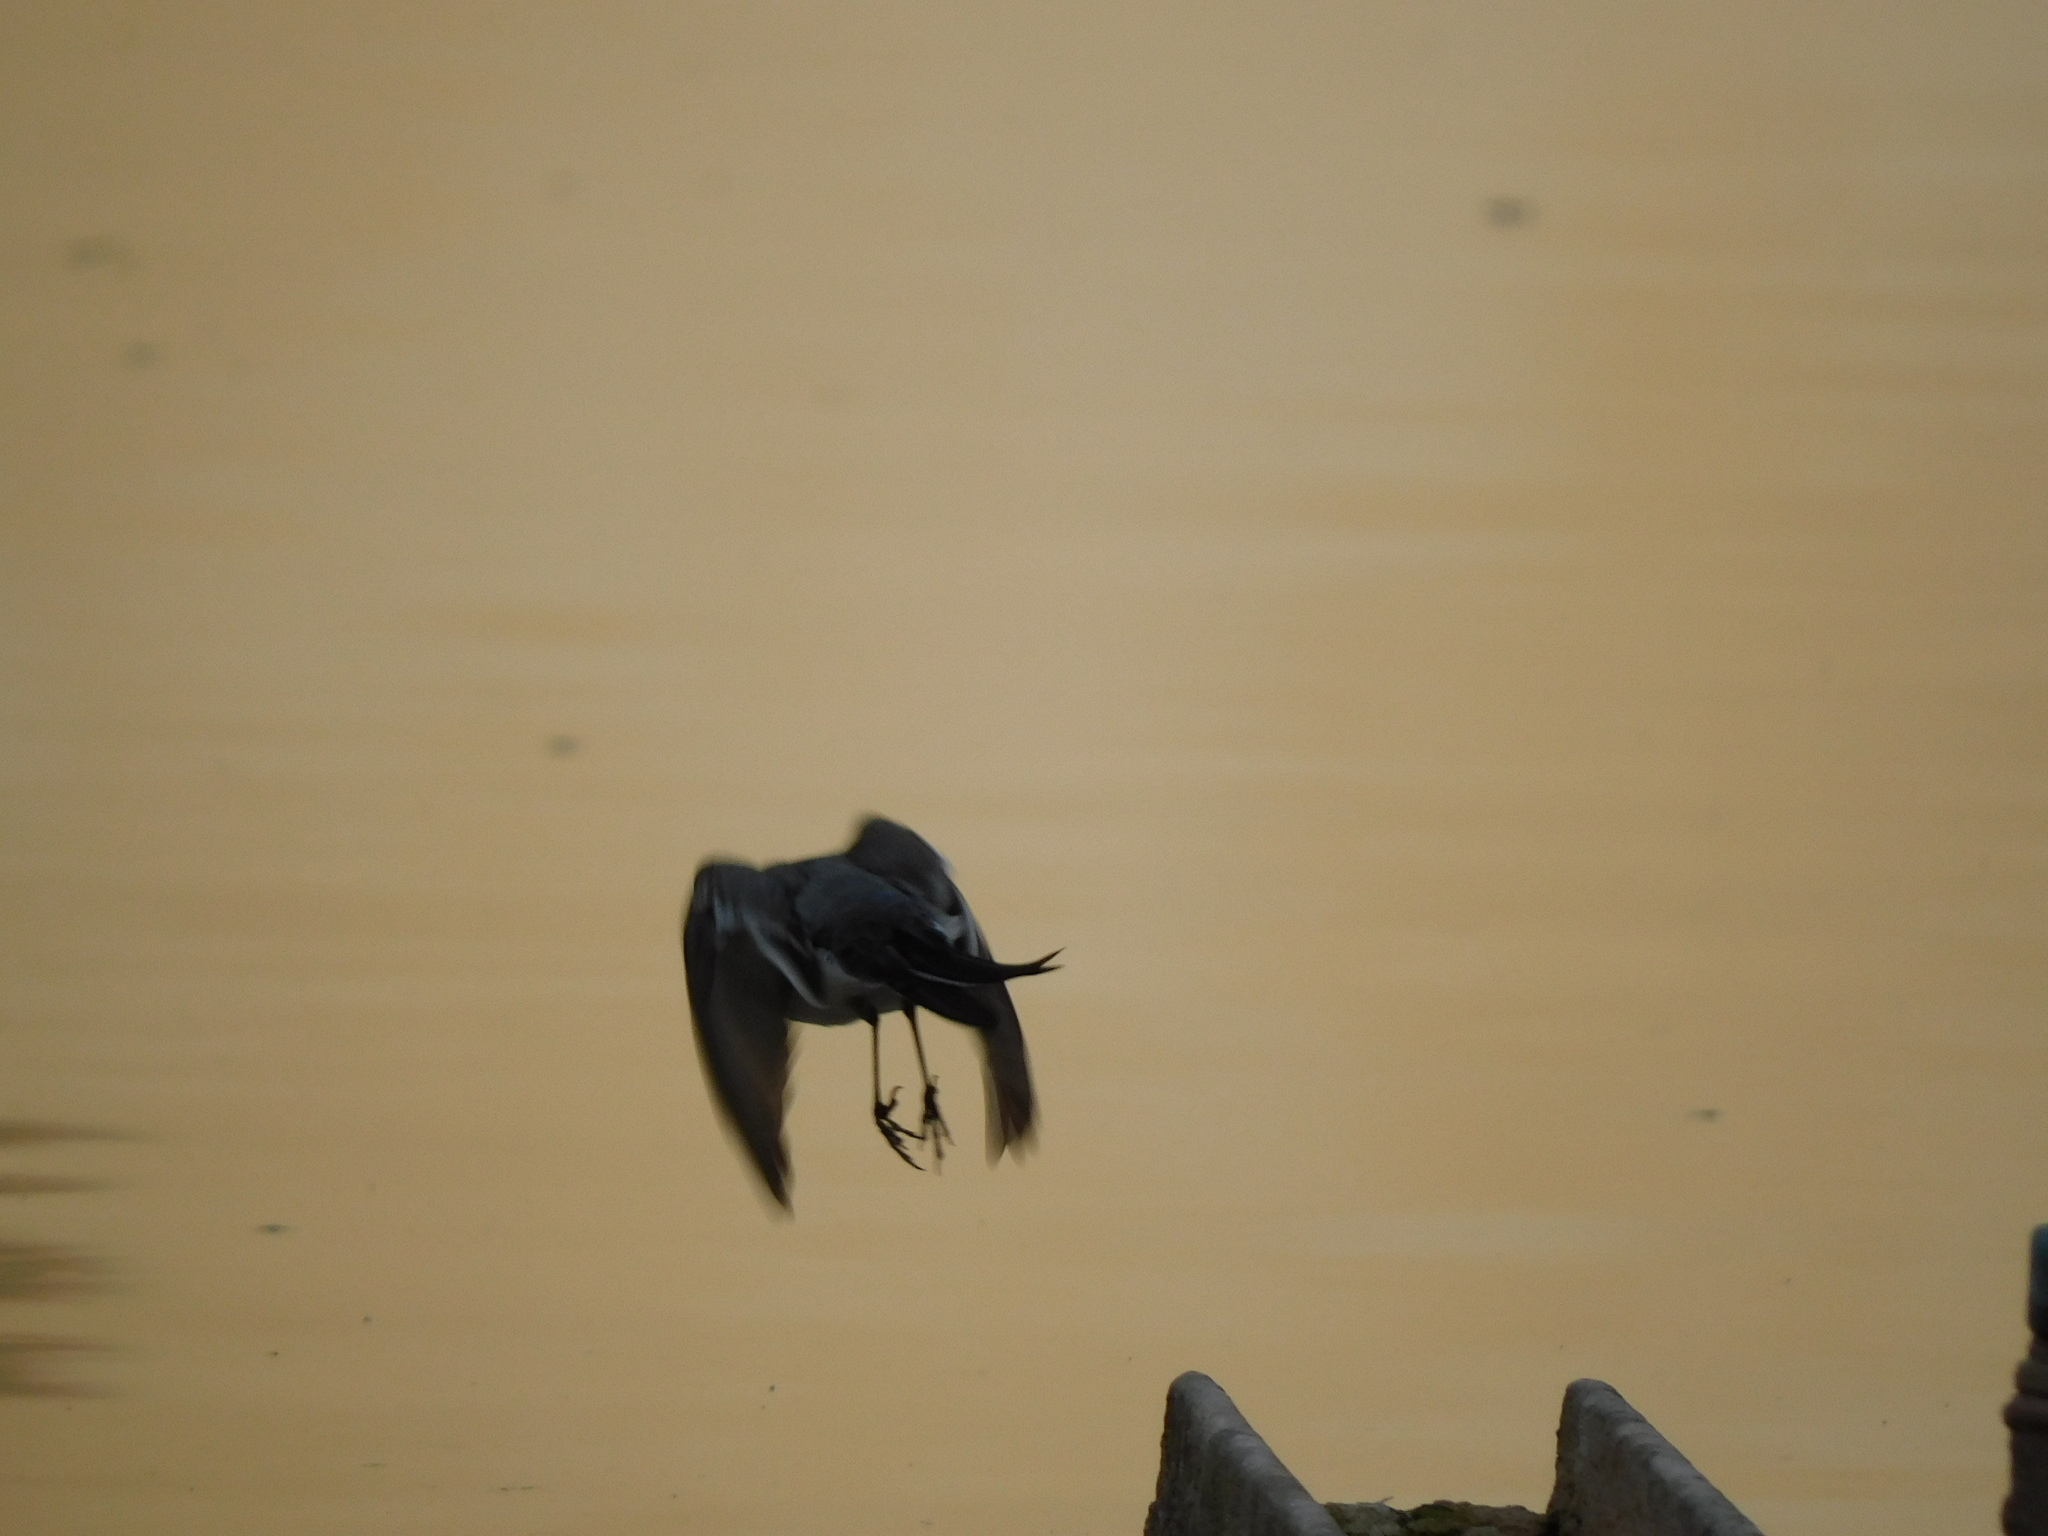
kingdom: Animalia
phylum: Chordata
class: Aves
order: Passeriformes
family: Motacillidae
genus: Motacilla
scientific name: Motacilla alba
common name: White wagtail
